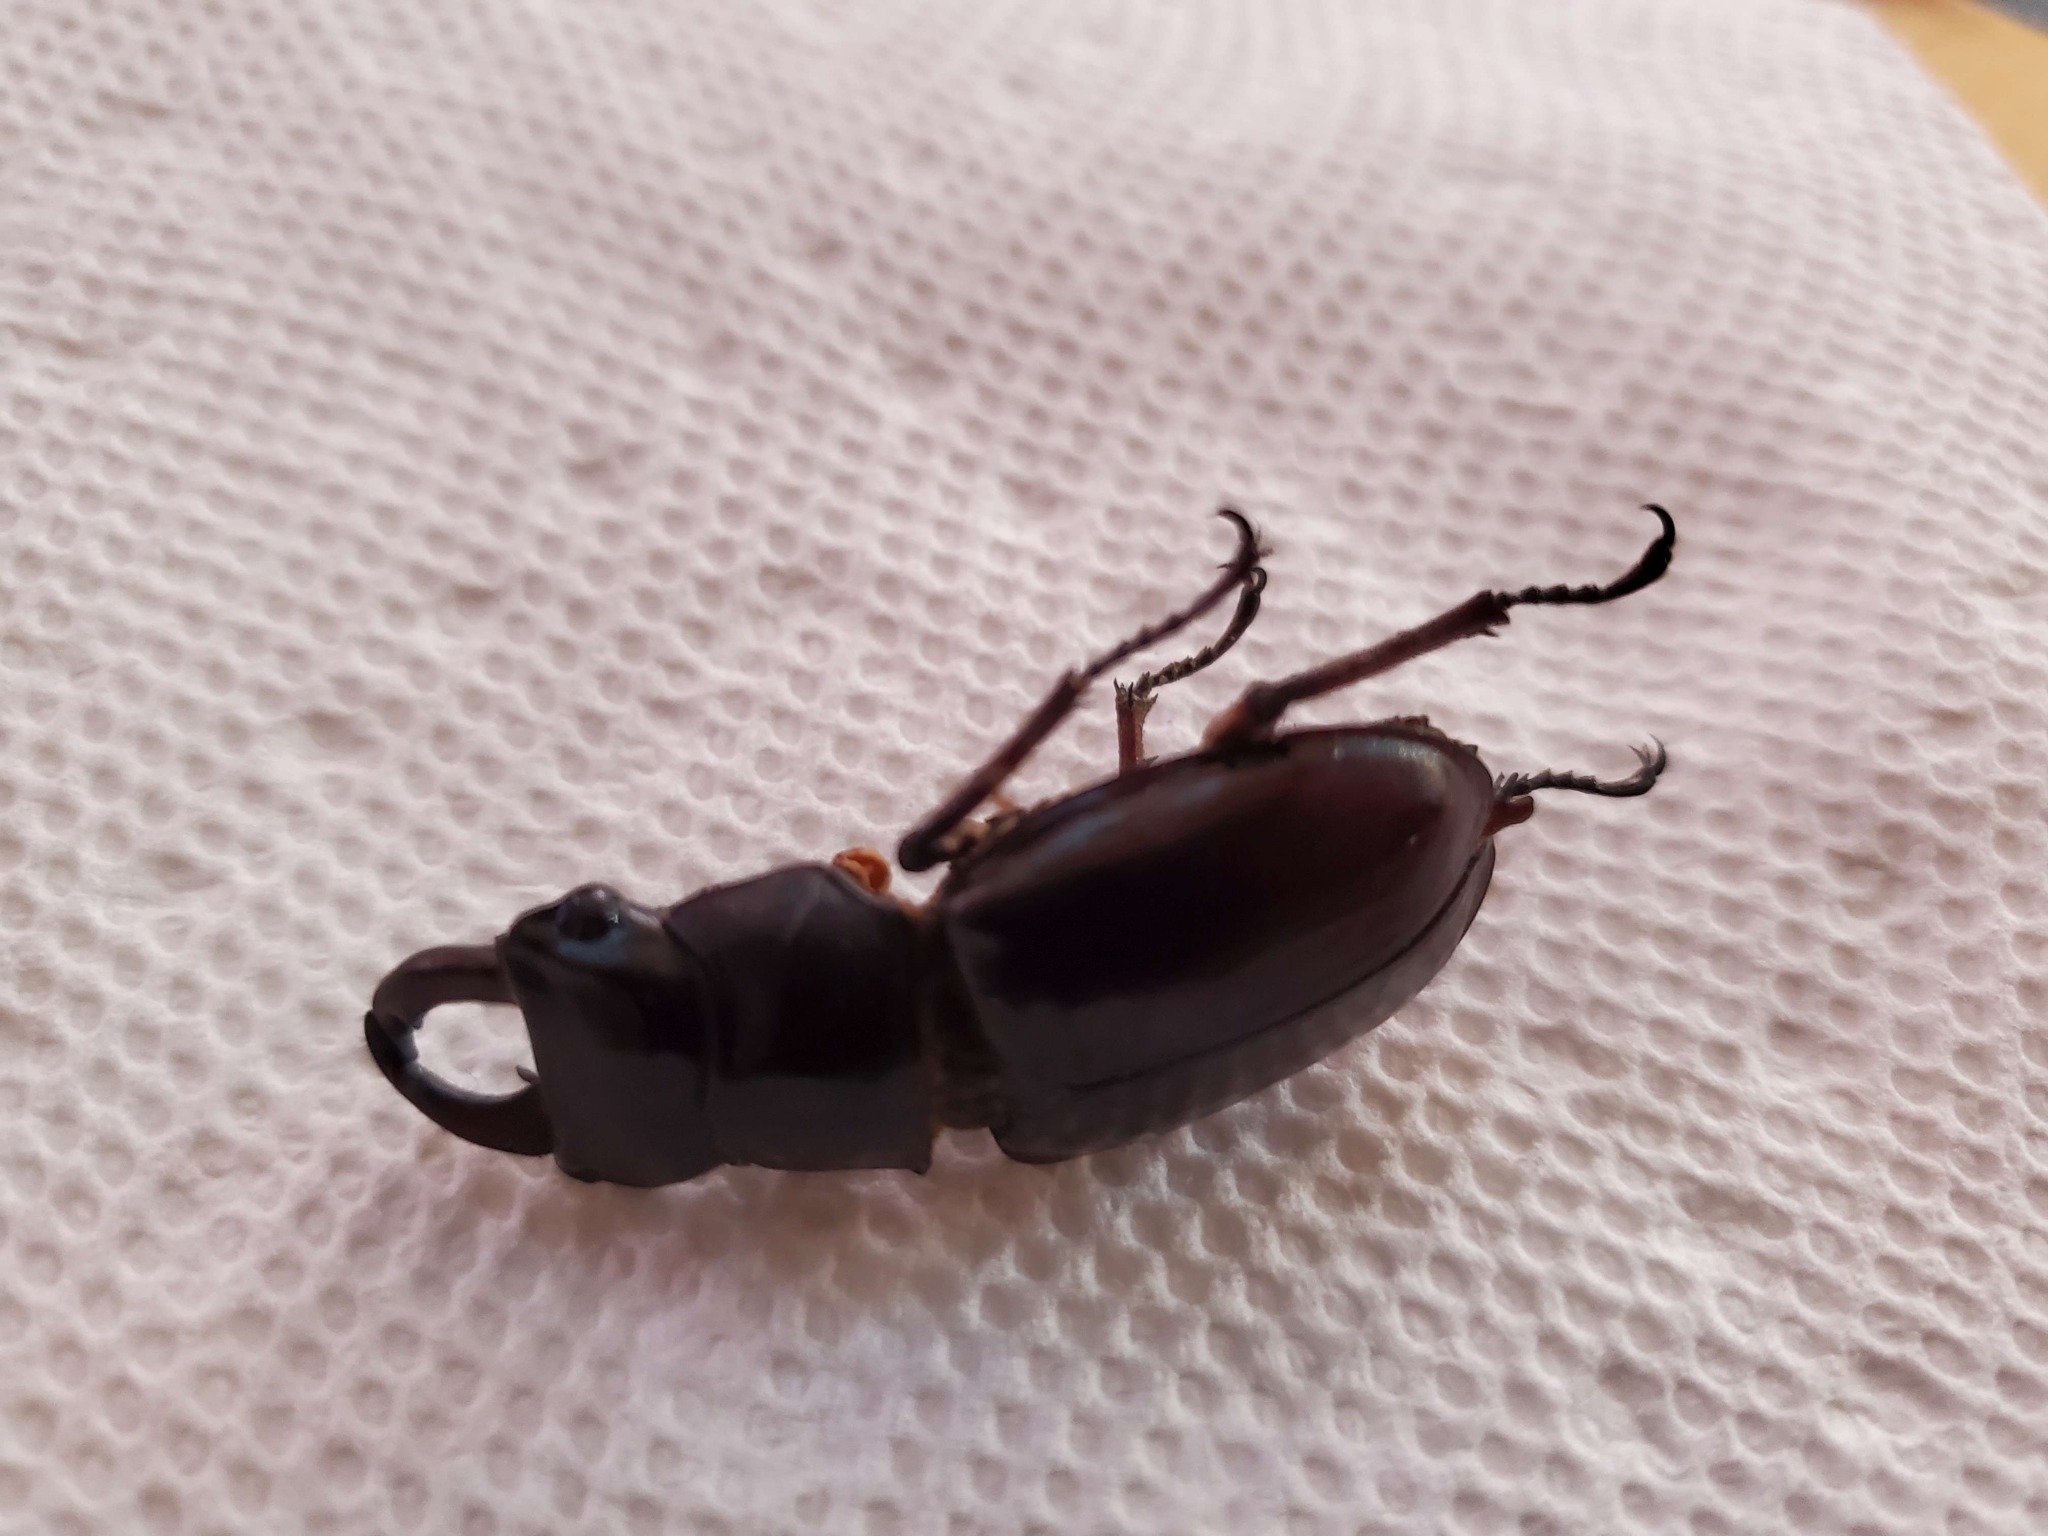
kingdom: Animalia
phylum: Arthropoda
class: Insecta
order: Coleoptera
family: Lucanidae
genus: Lucanus
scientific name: Lucanus capreolus
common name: Stag beetle
